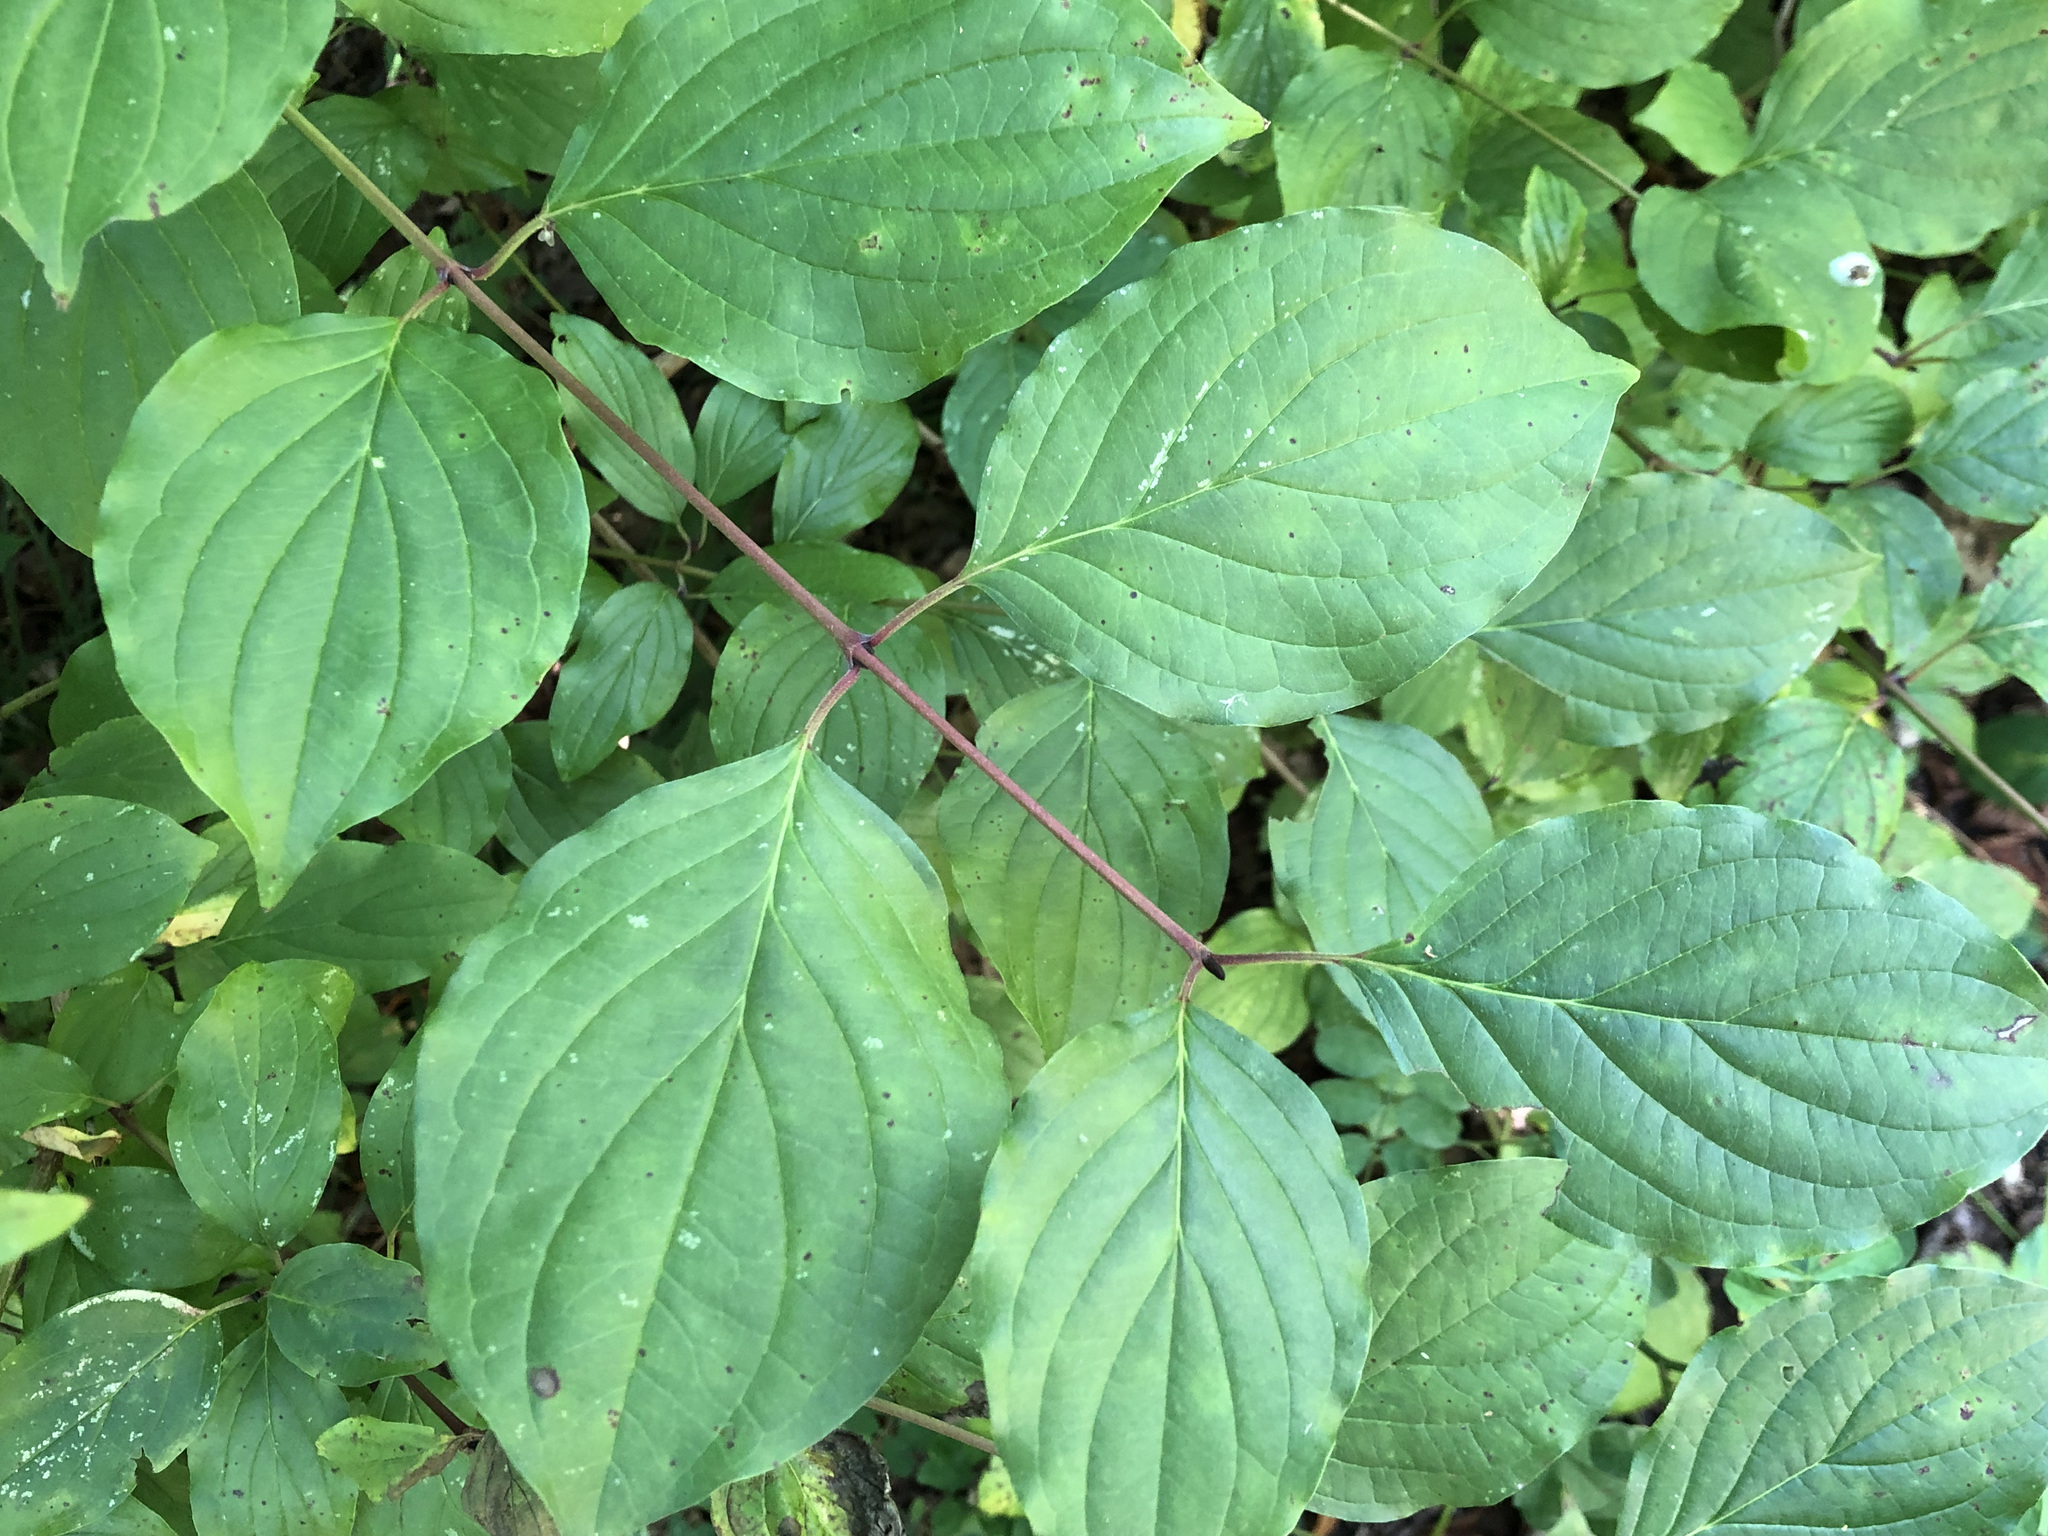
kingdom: Plantae
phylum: Tracheophyta
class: Magnoliopsida
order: Cornales
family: Cornaceae
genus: Cornus
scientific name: Cornus sanguinea
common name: Dogwood
